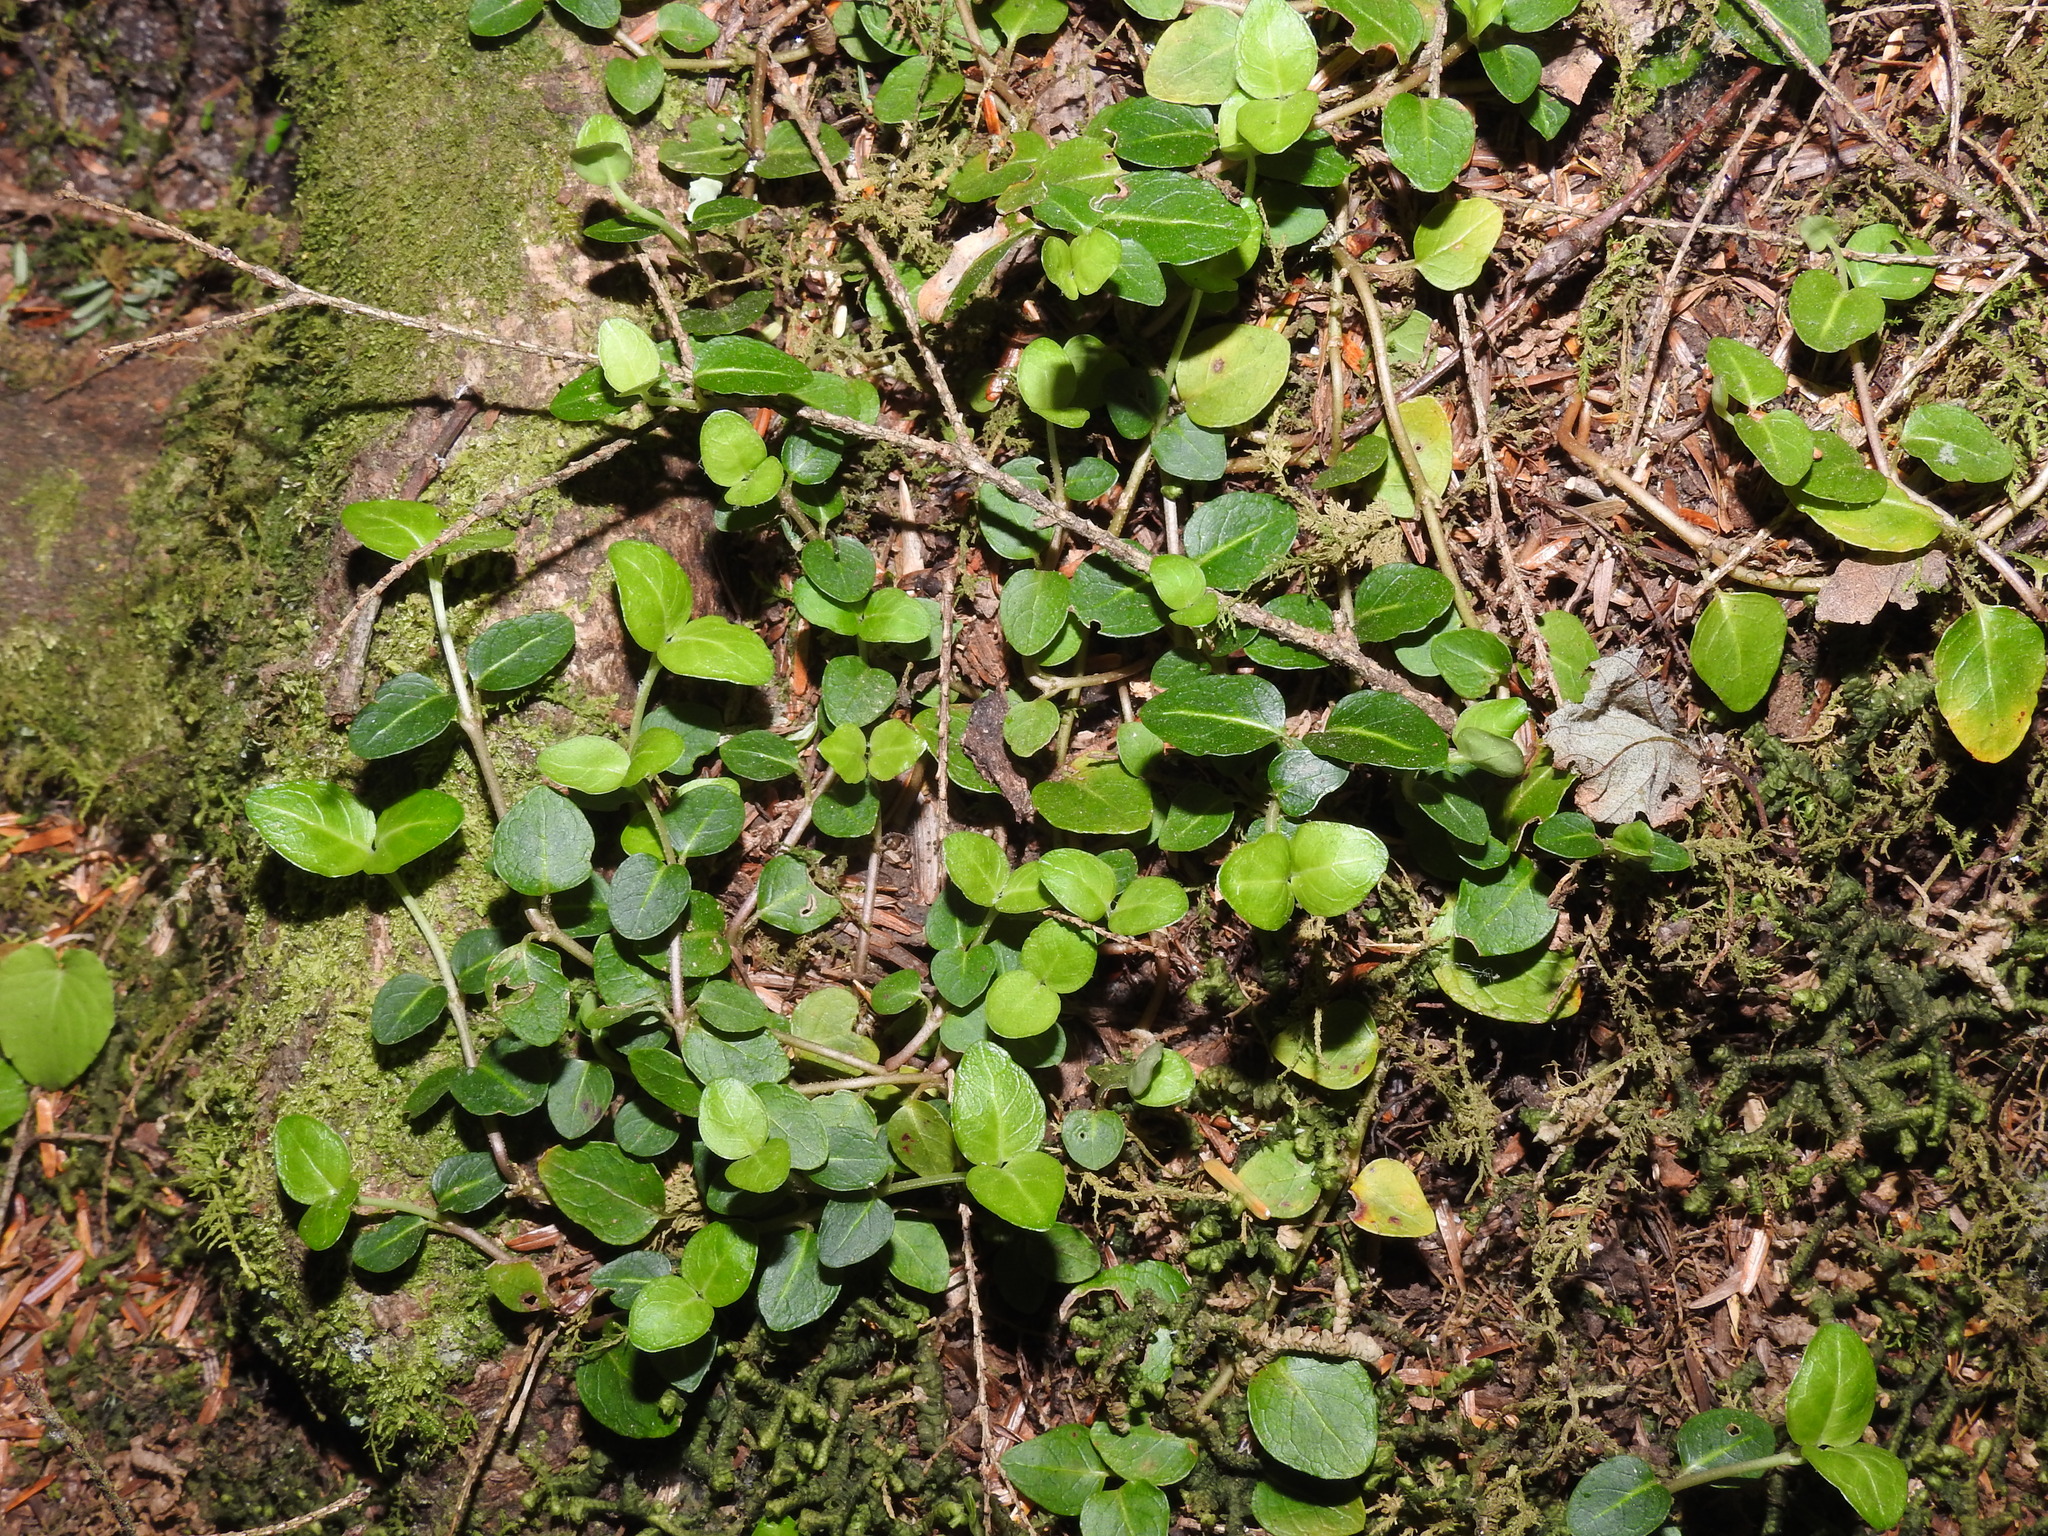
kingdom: Plantae
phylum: Tracheophyta
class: Magnoliopsida
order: Gentianales
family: Rubiaceae
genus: Mitchella
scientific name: Mitchella repens
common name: Partridge-berry
